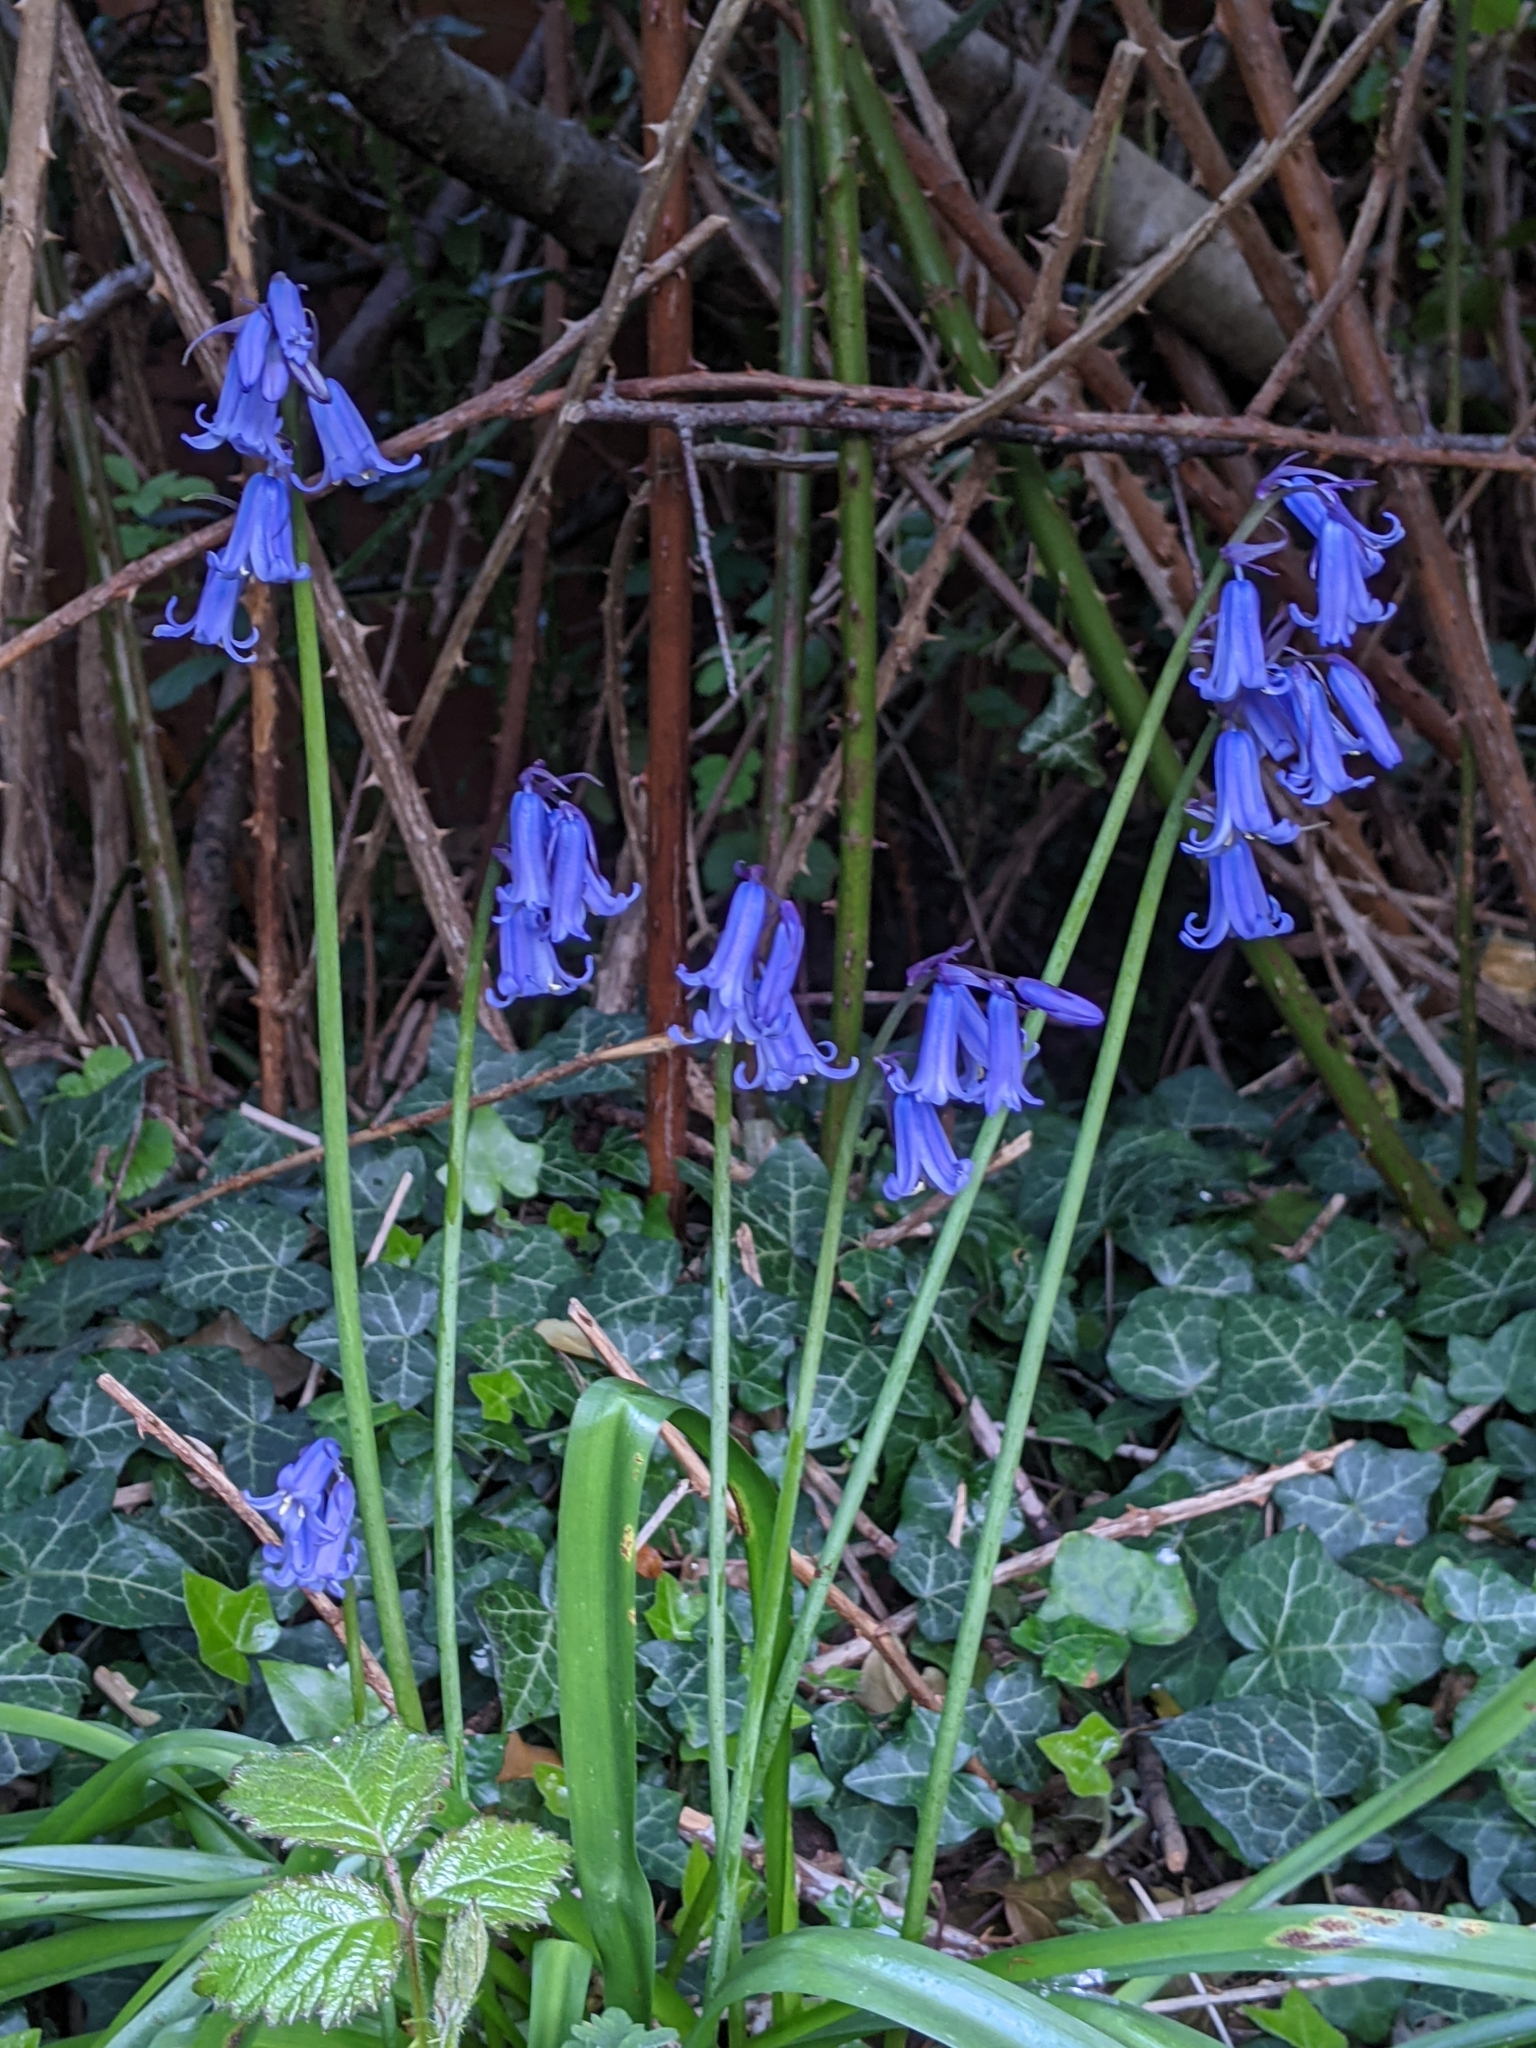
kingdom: Plantae
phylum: Tracheophyta
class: Liliopsida
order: Asparagales
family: Asparagaceae
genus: Hyacinthoides
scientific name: Hyacinthoides non-scripta
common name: Bluebell
